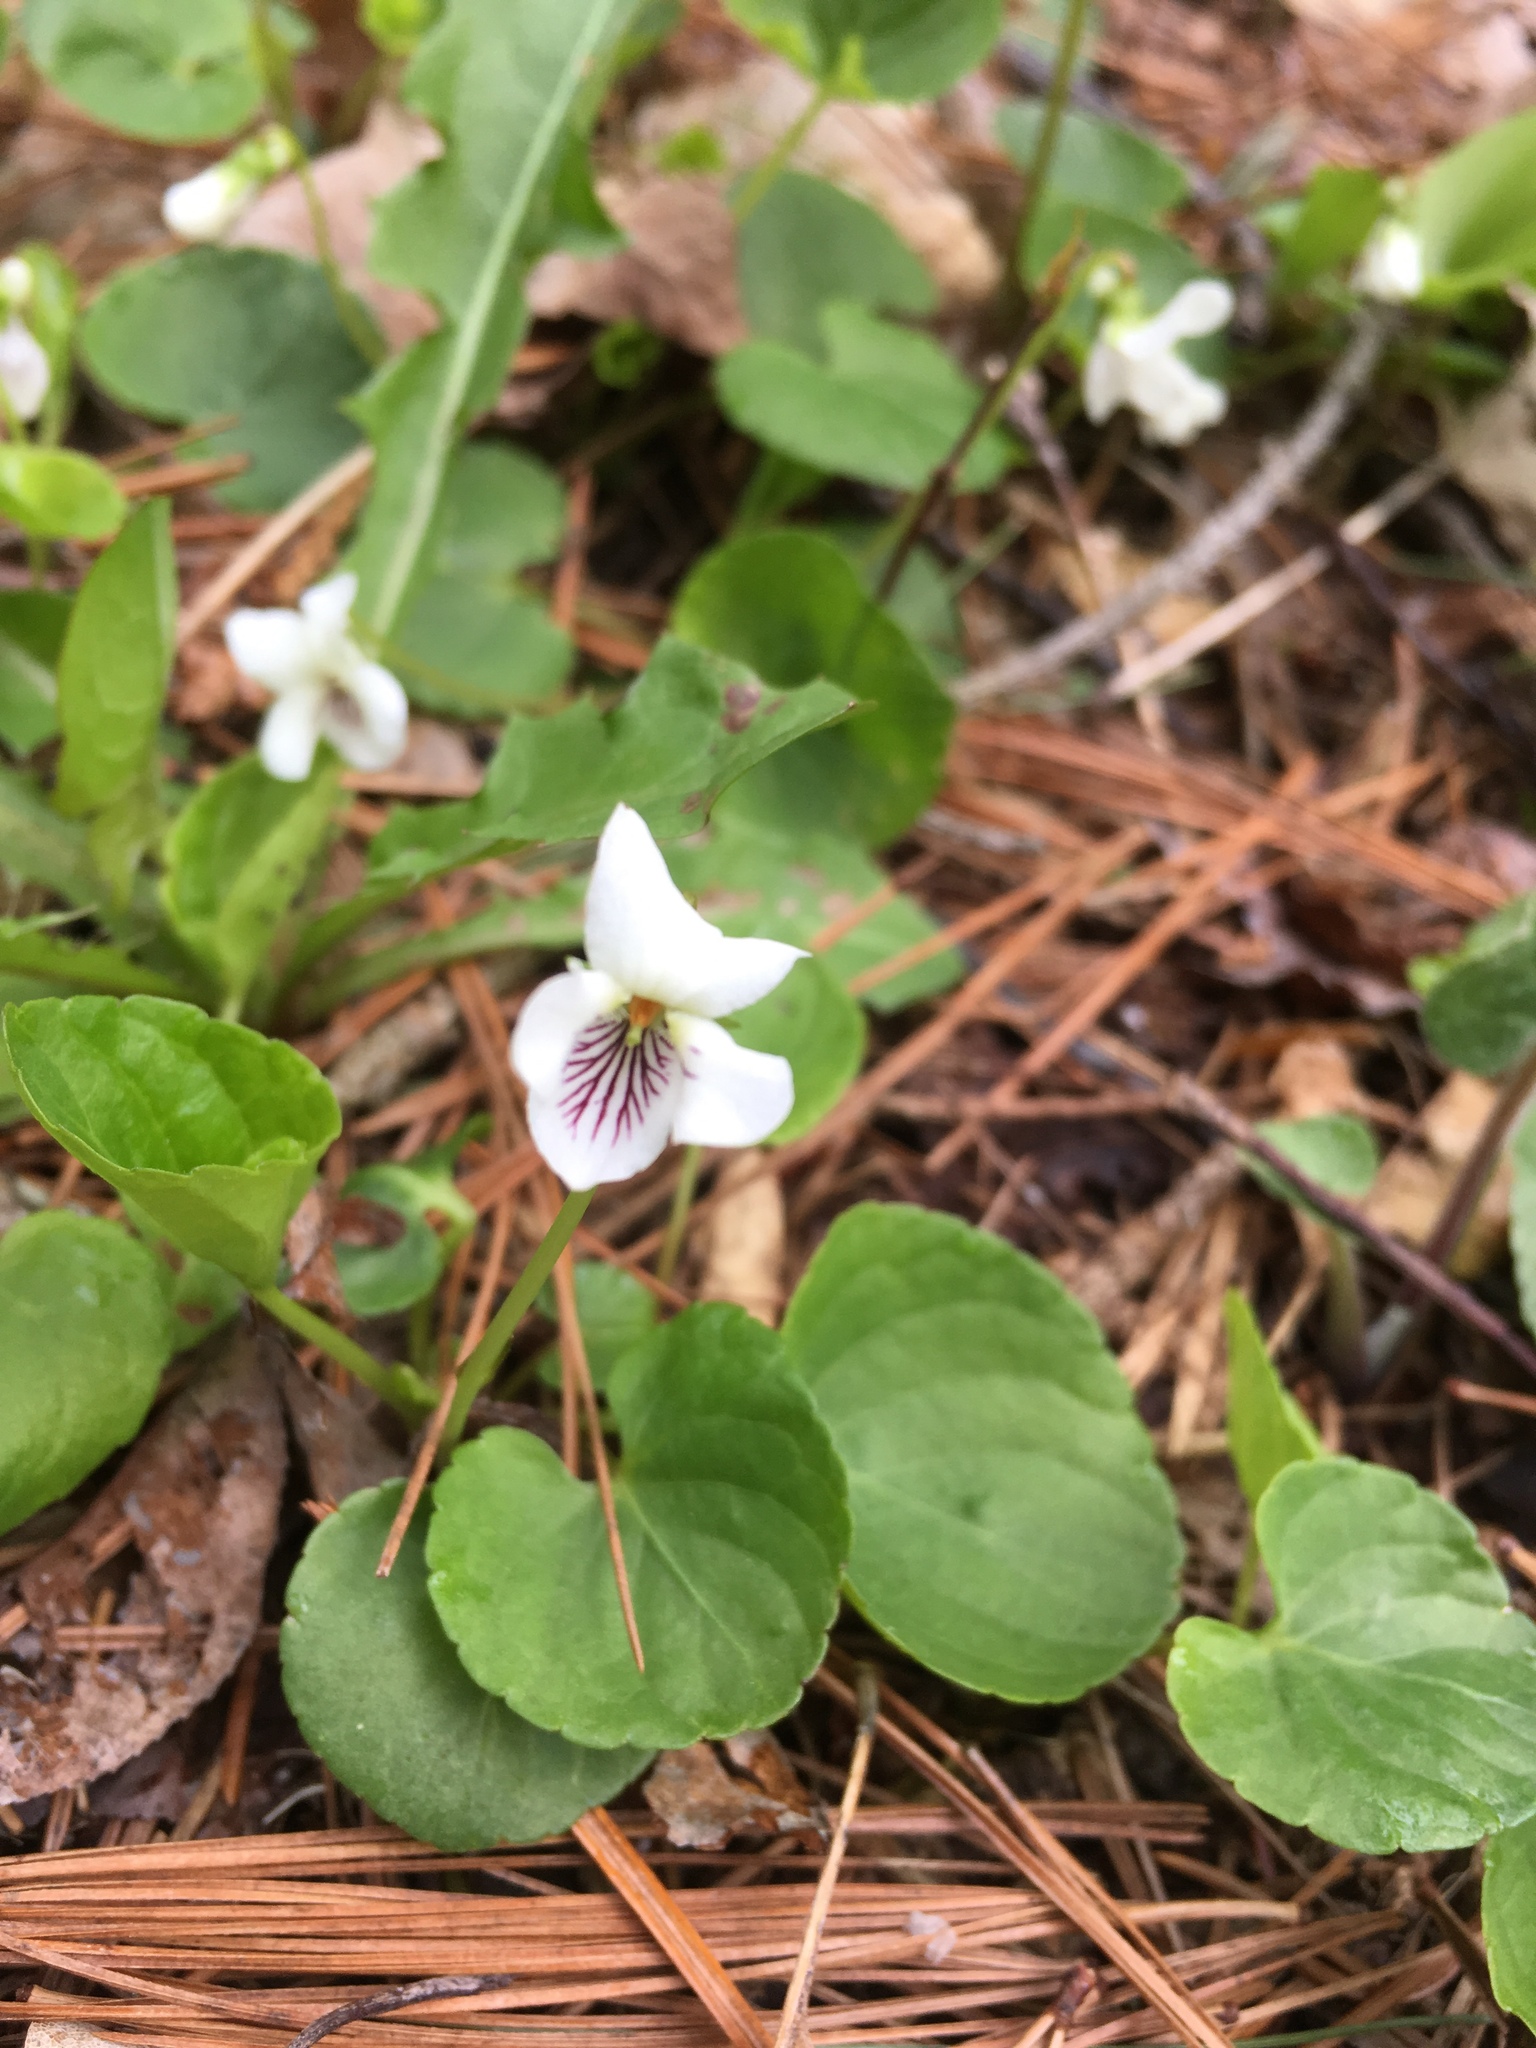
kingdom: Plantae
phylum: Tracheophyta
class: Magnoliopsida
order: Malpighiales
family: Violaceae
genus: Viola
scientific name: Viola minuscula
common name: Northern white violet
